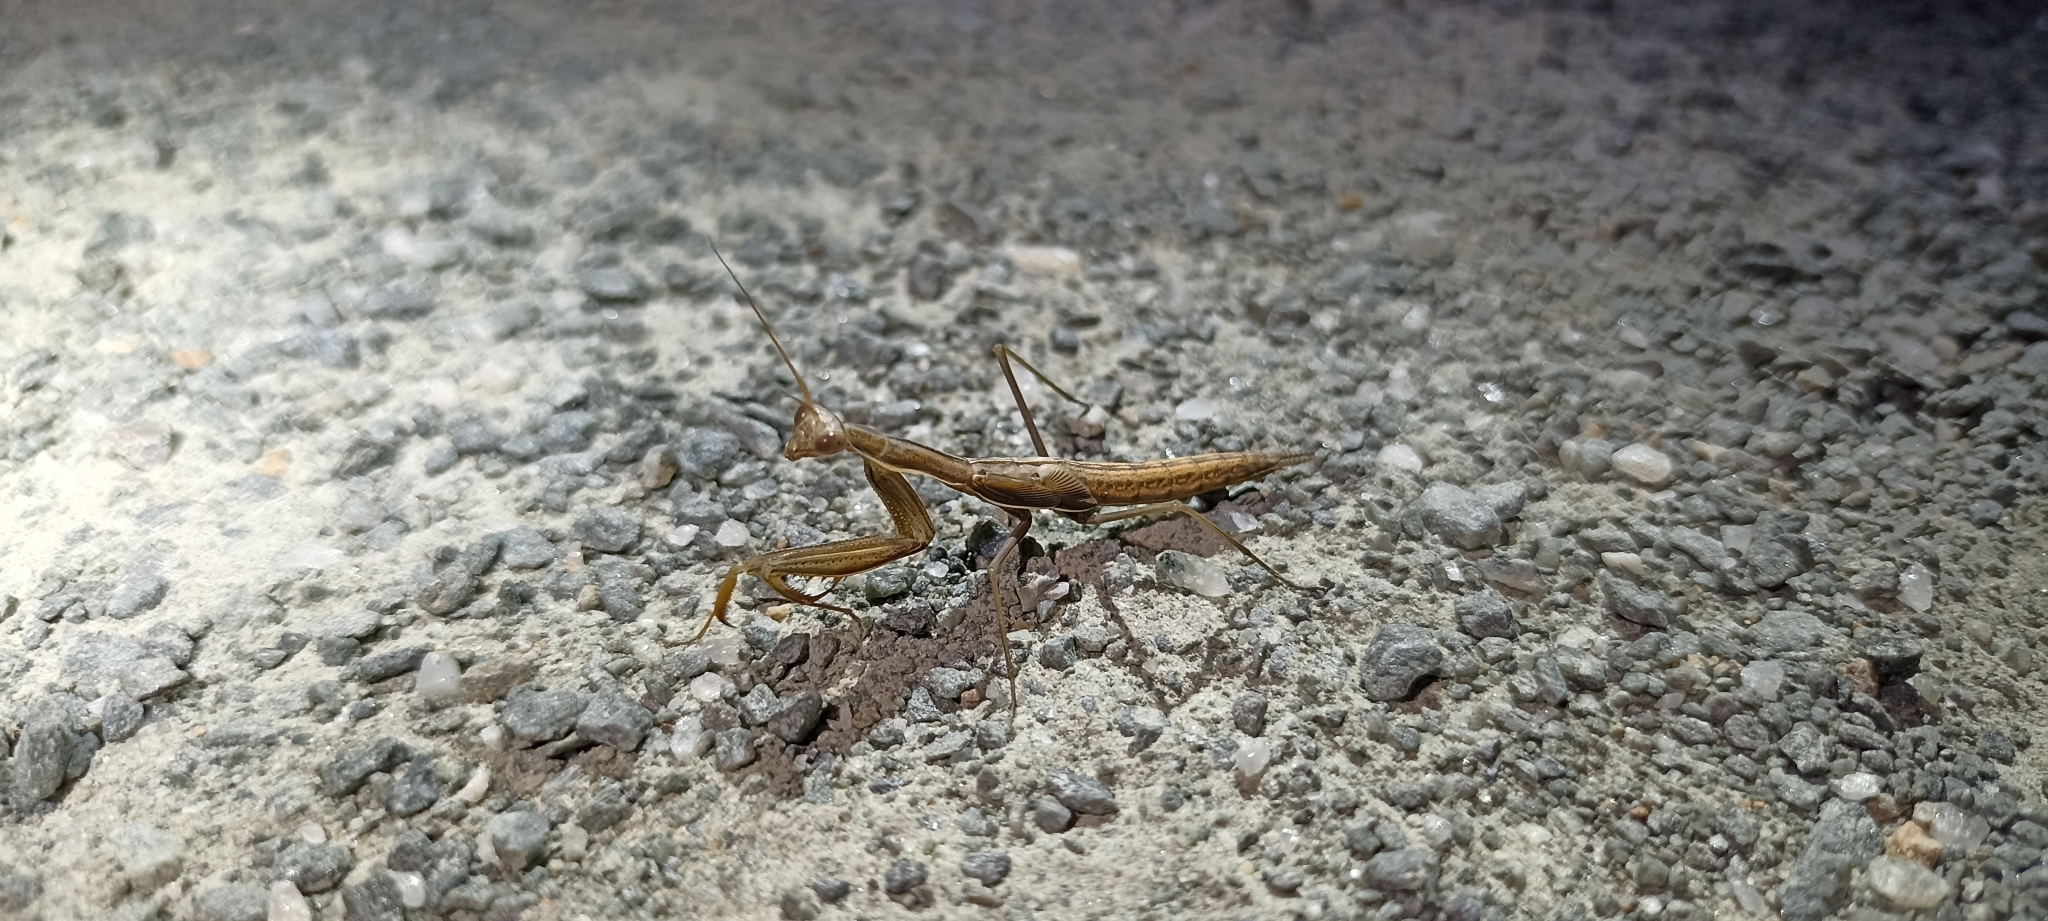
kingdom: Animalia
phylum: Arthropoda
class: Insecta
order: Mantodea
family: Mantidae
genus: Mantis
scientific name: Mantis religiosa
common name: Praying mantis
